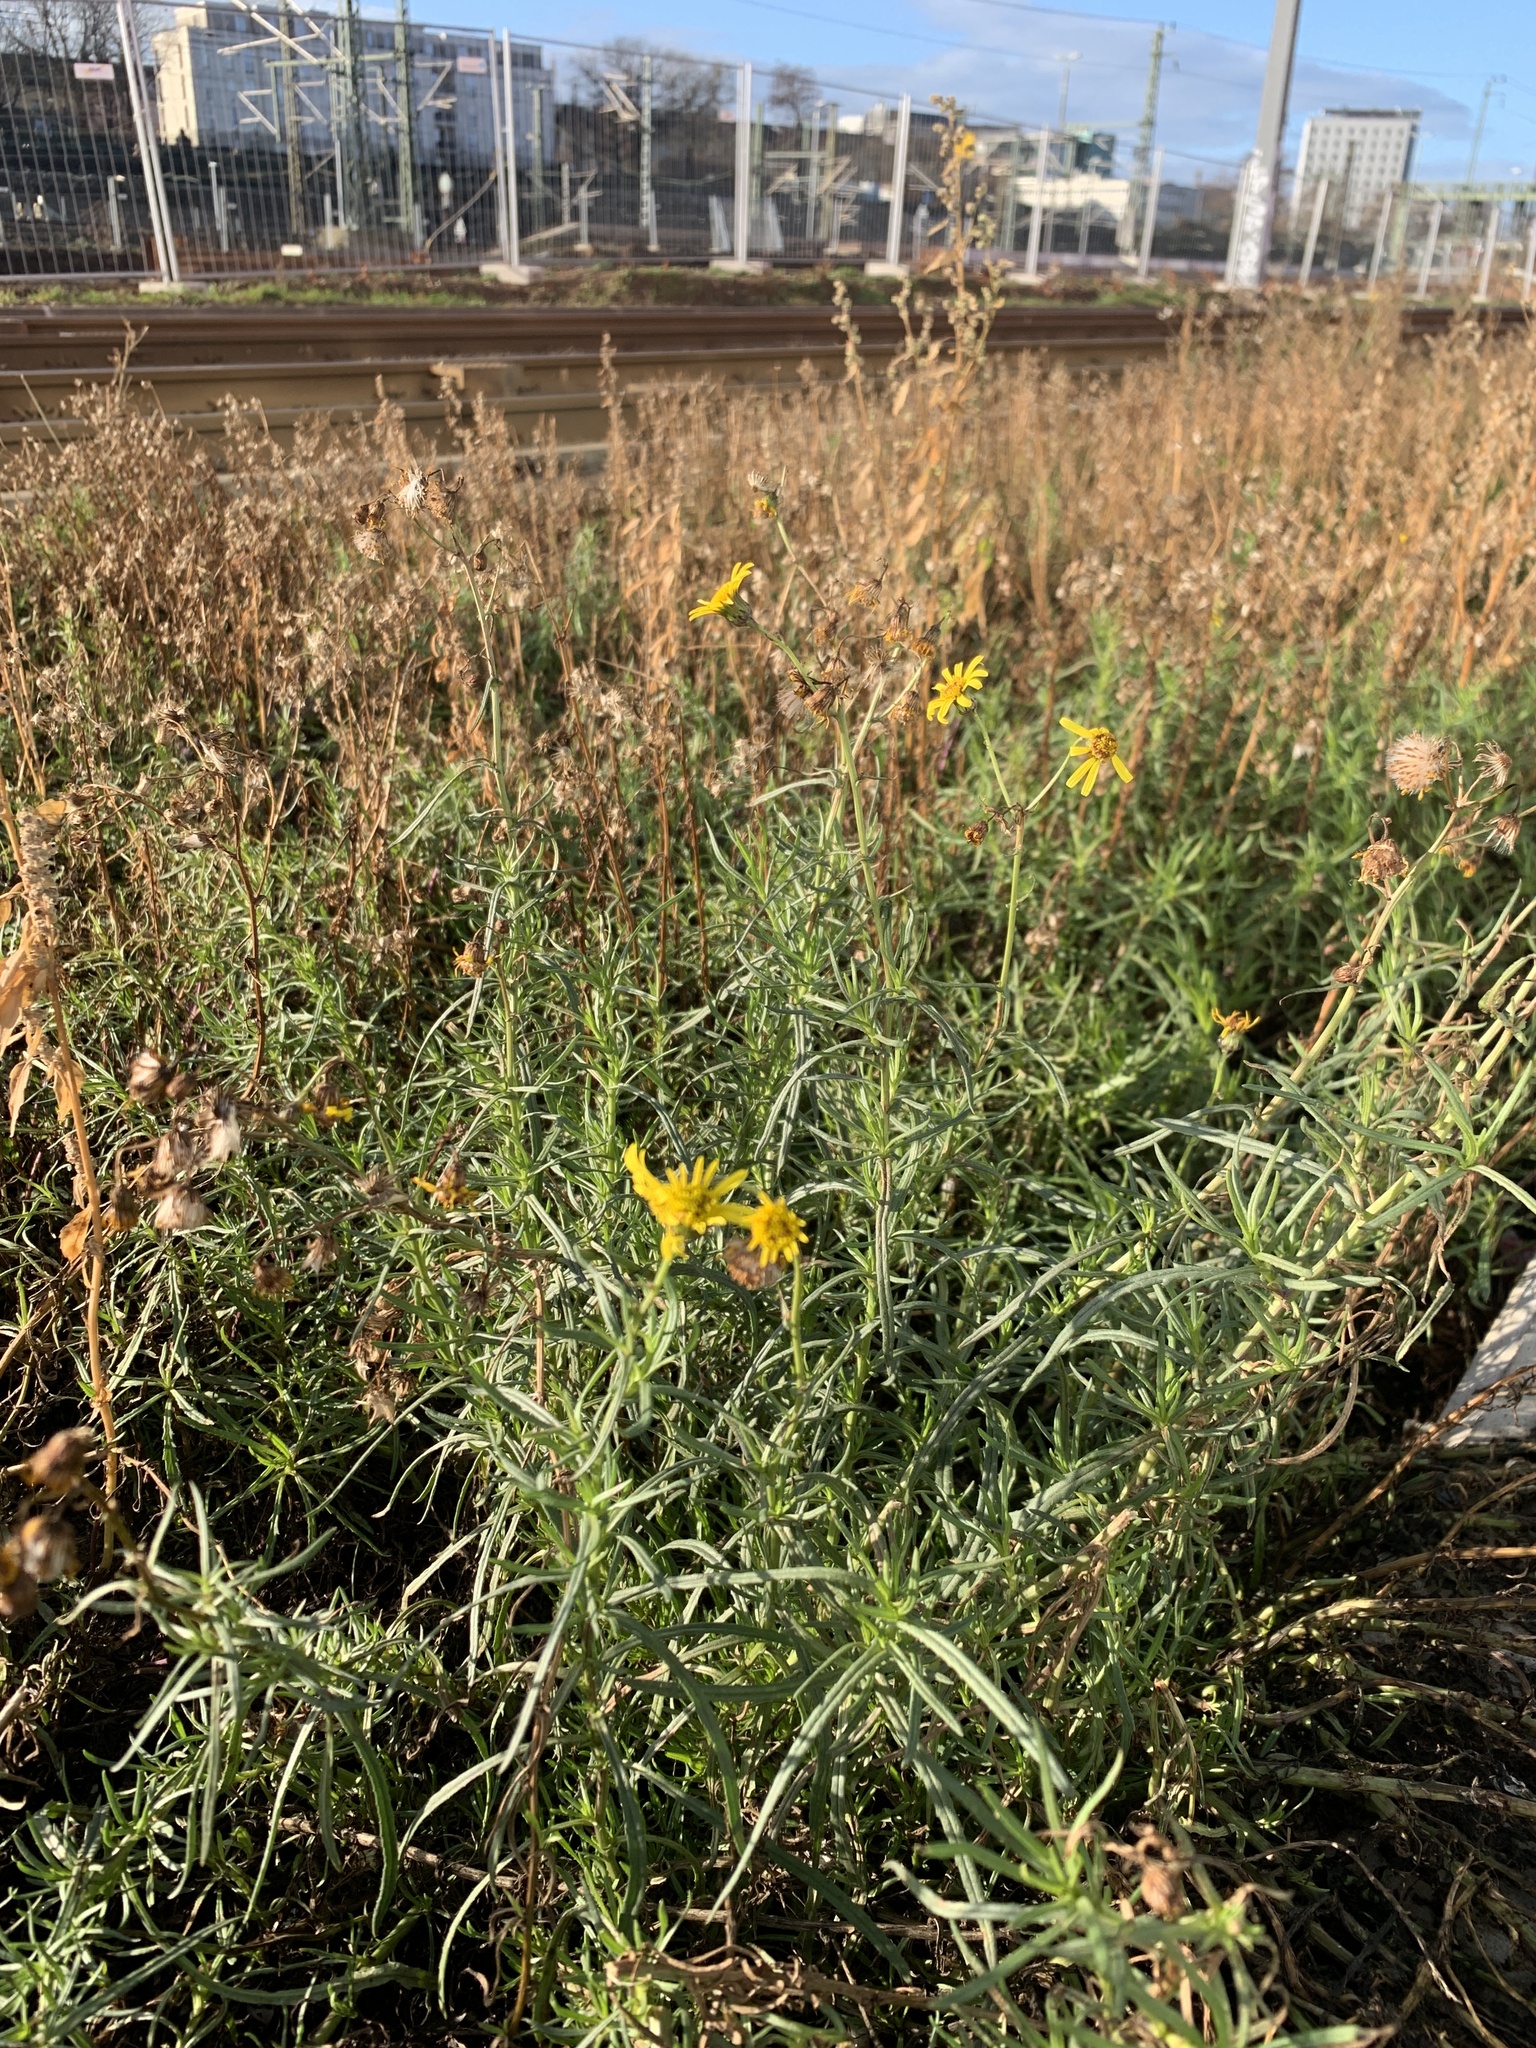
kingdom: Plantae
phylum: Tracheophyta
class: Magnoliopsida
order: Asterales
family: Asteraceae
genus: Senecio
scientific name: Senecio inaequidens
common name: Narrow-leaved ragwort
